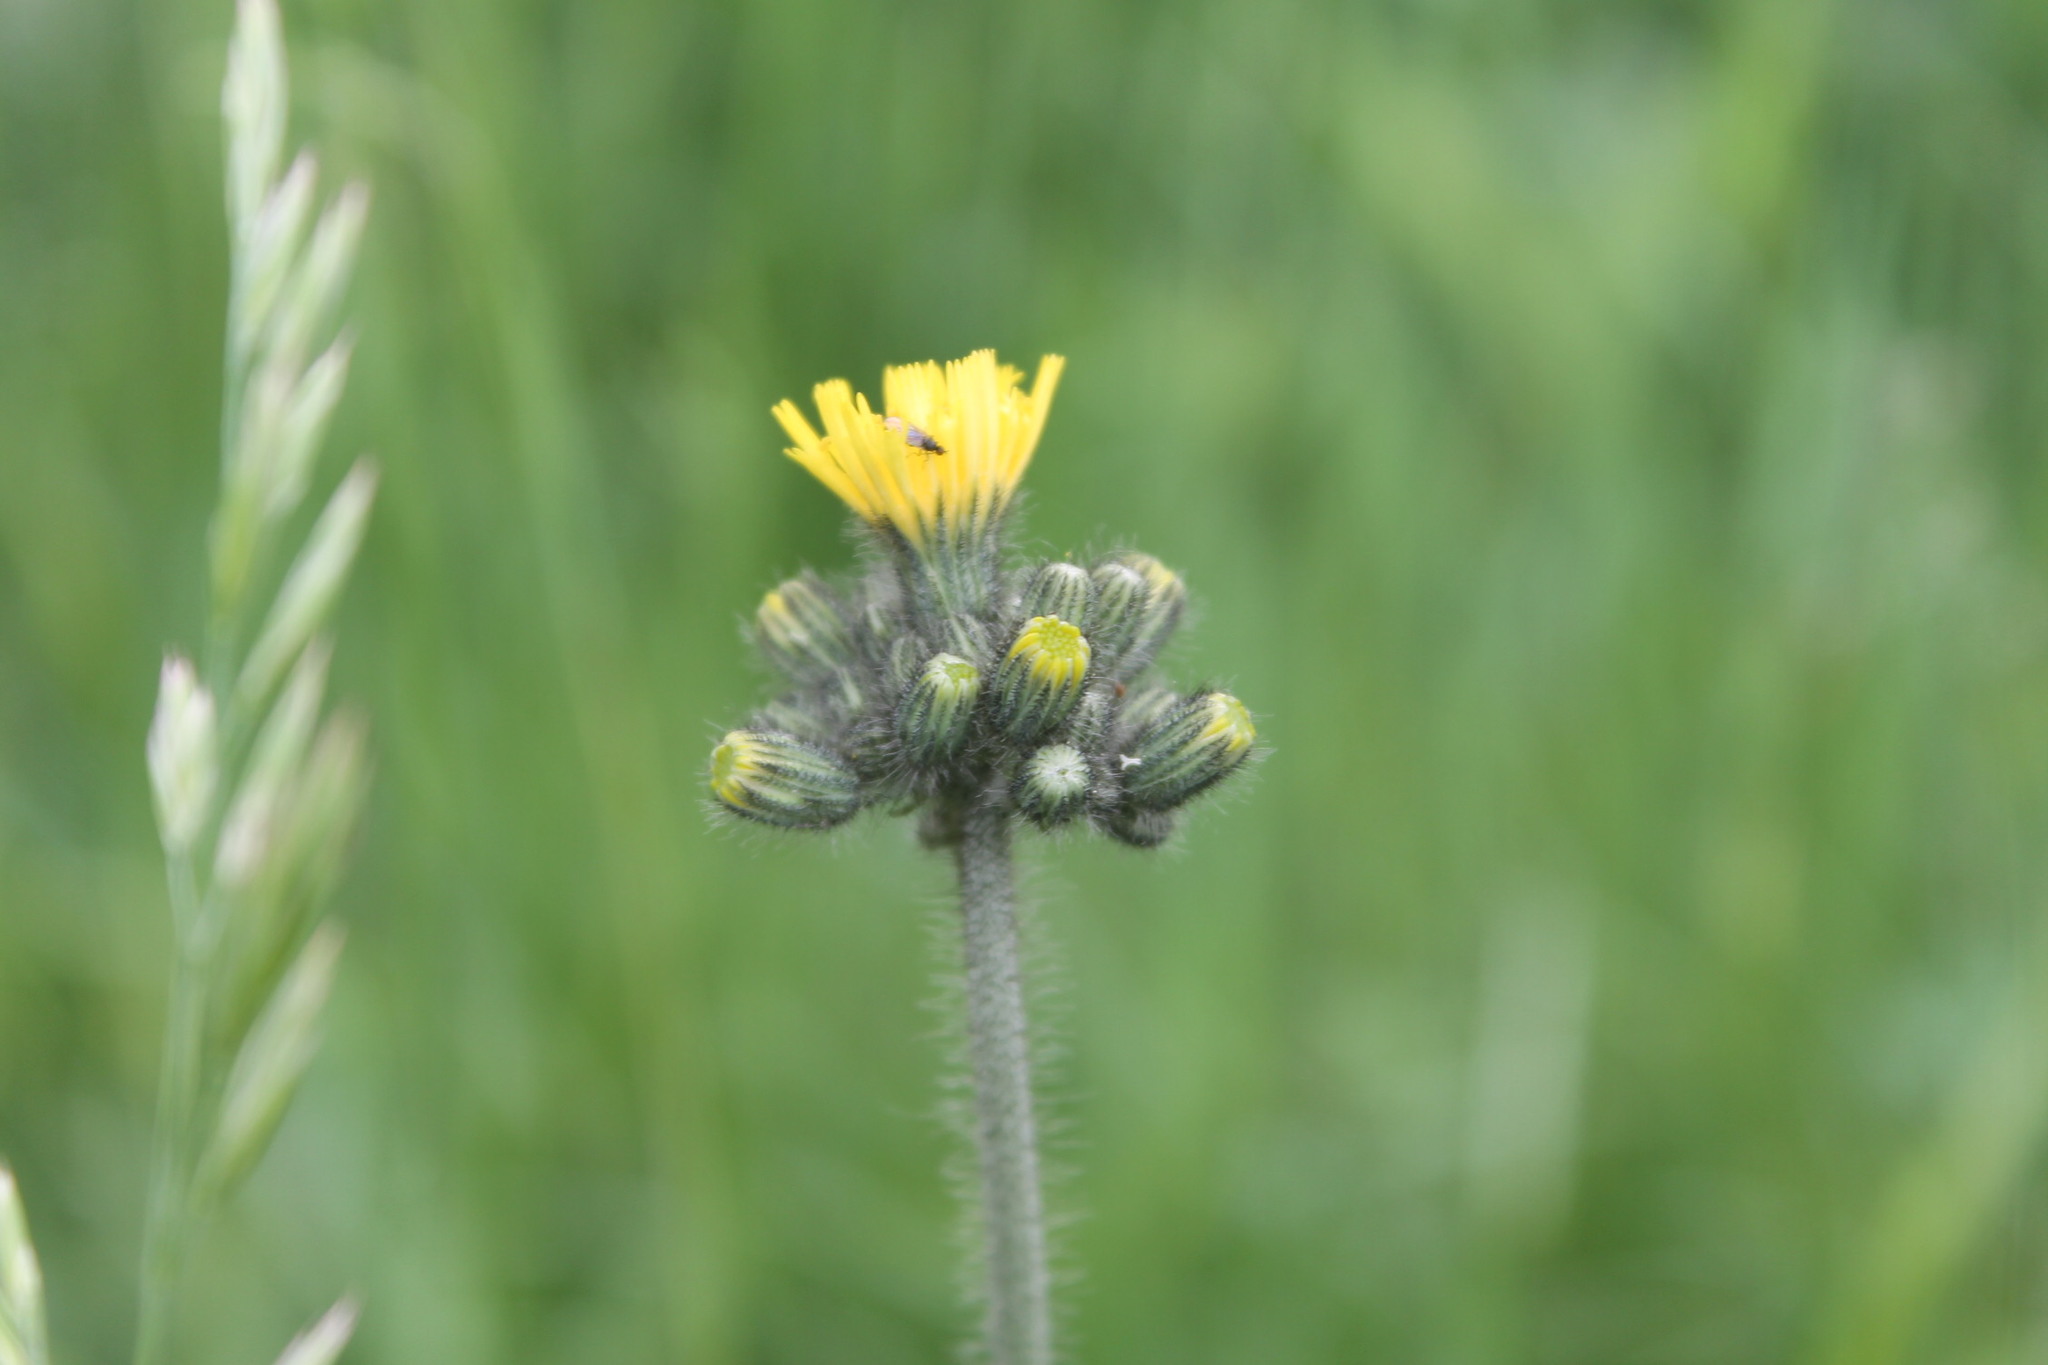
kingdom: Plantae
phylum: Tracheophyta
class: Magnoliopsida
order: Asterales
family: Asteraceae
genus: Pilosella
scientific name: Pilosella caespitosa
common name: Yellow fox-and-cubs
